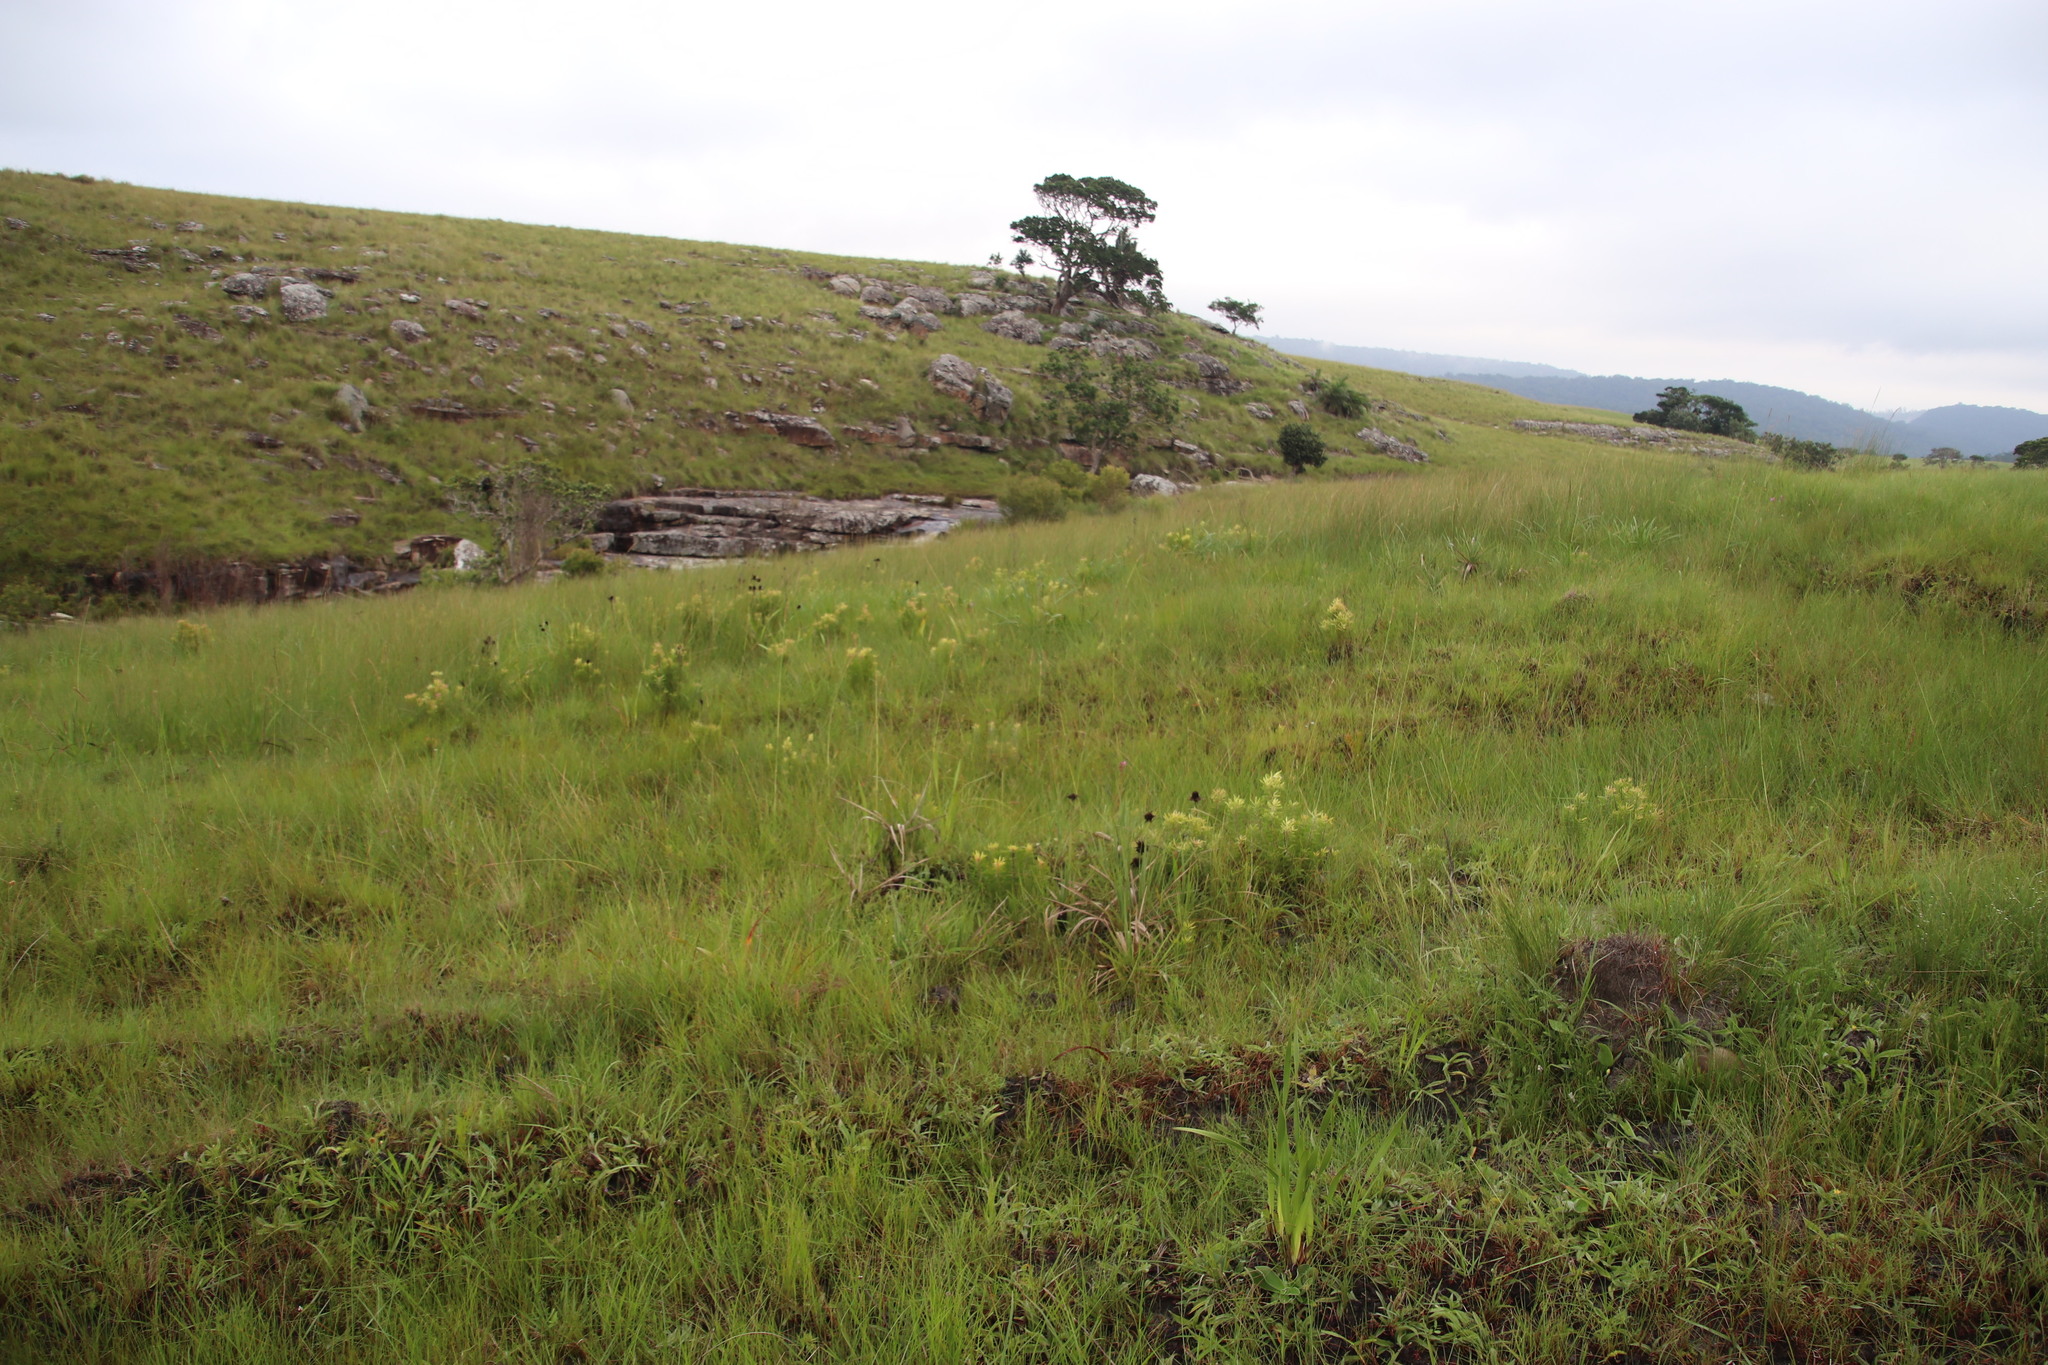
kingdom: Plantae
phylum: Tracheophyta
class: Magnoliopsida
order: Proteales
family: Proteaceae
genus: Leucadendron
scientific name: Leucadendron spissifolium
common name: Spear-leaf conebush
